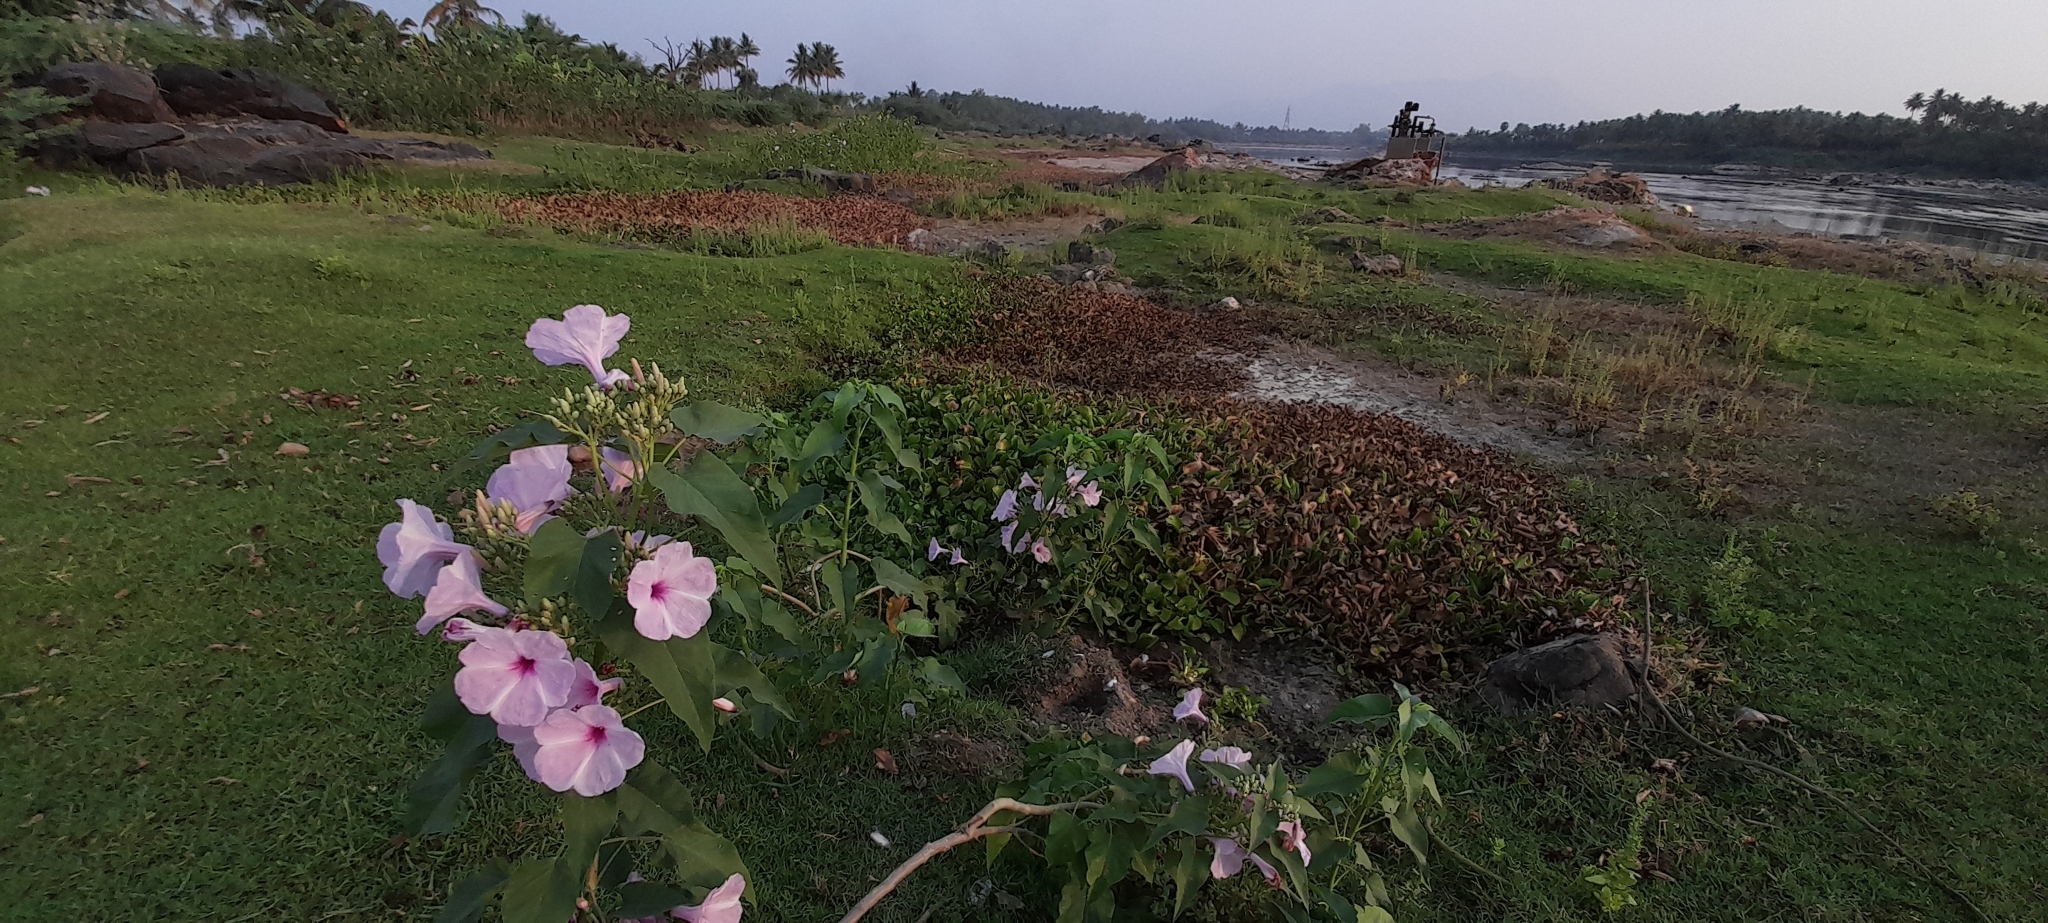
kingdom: Plantae
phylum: Tracheophyta
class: Magnoliopsida
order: Solanales
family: Convolvulaceae
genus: Ipomoea
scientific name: Ipomoea carnea
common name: Morning-glory
